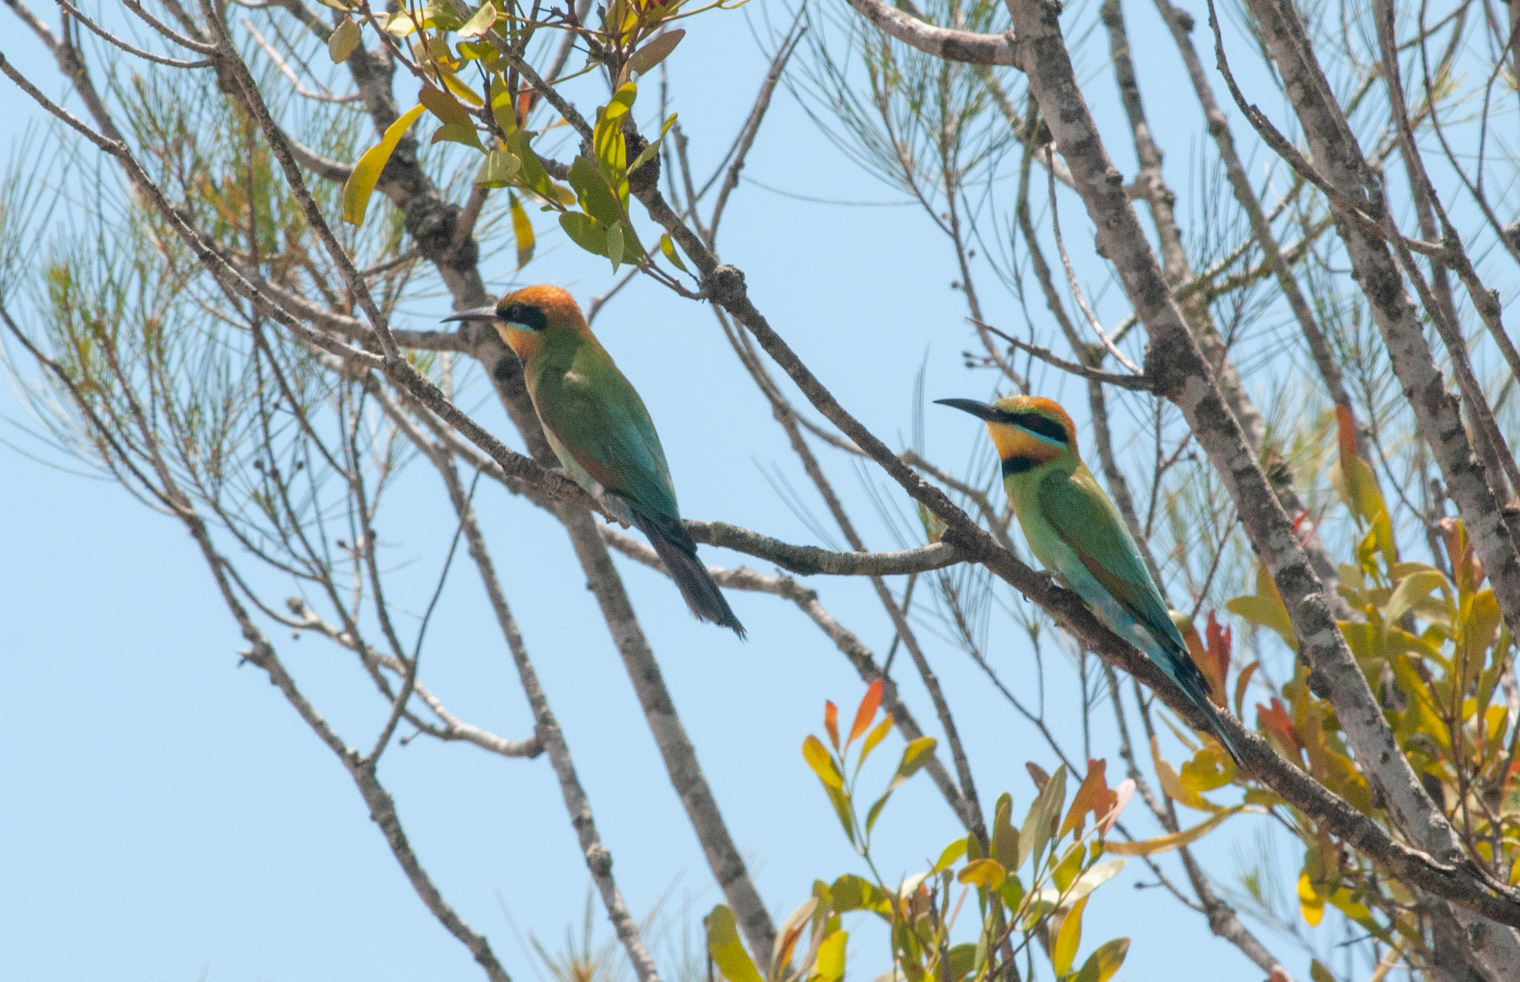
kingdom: Animalia
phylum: Chordata
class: Aves
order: Coraciiformes
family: Meropidae
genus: Merops
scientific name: Merops ornatus
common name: Rainbow bee-eater
